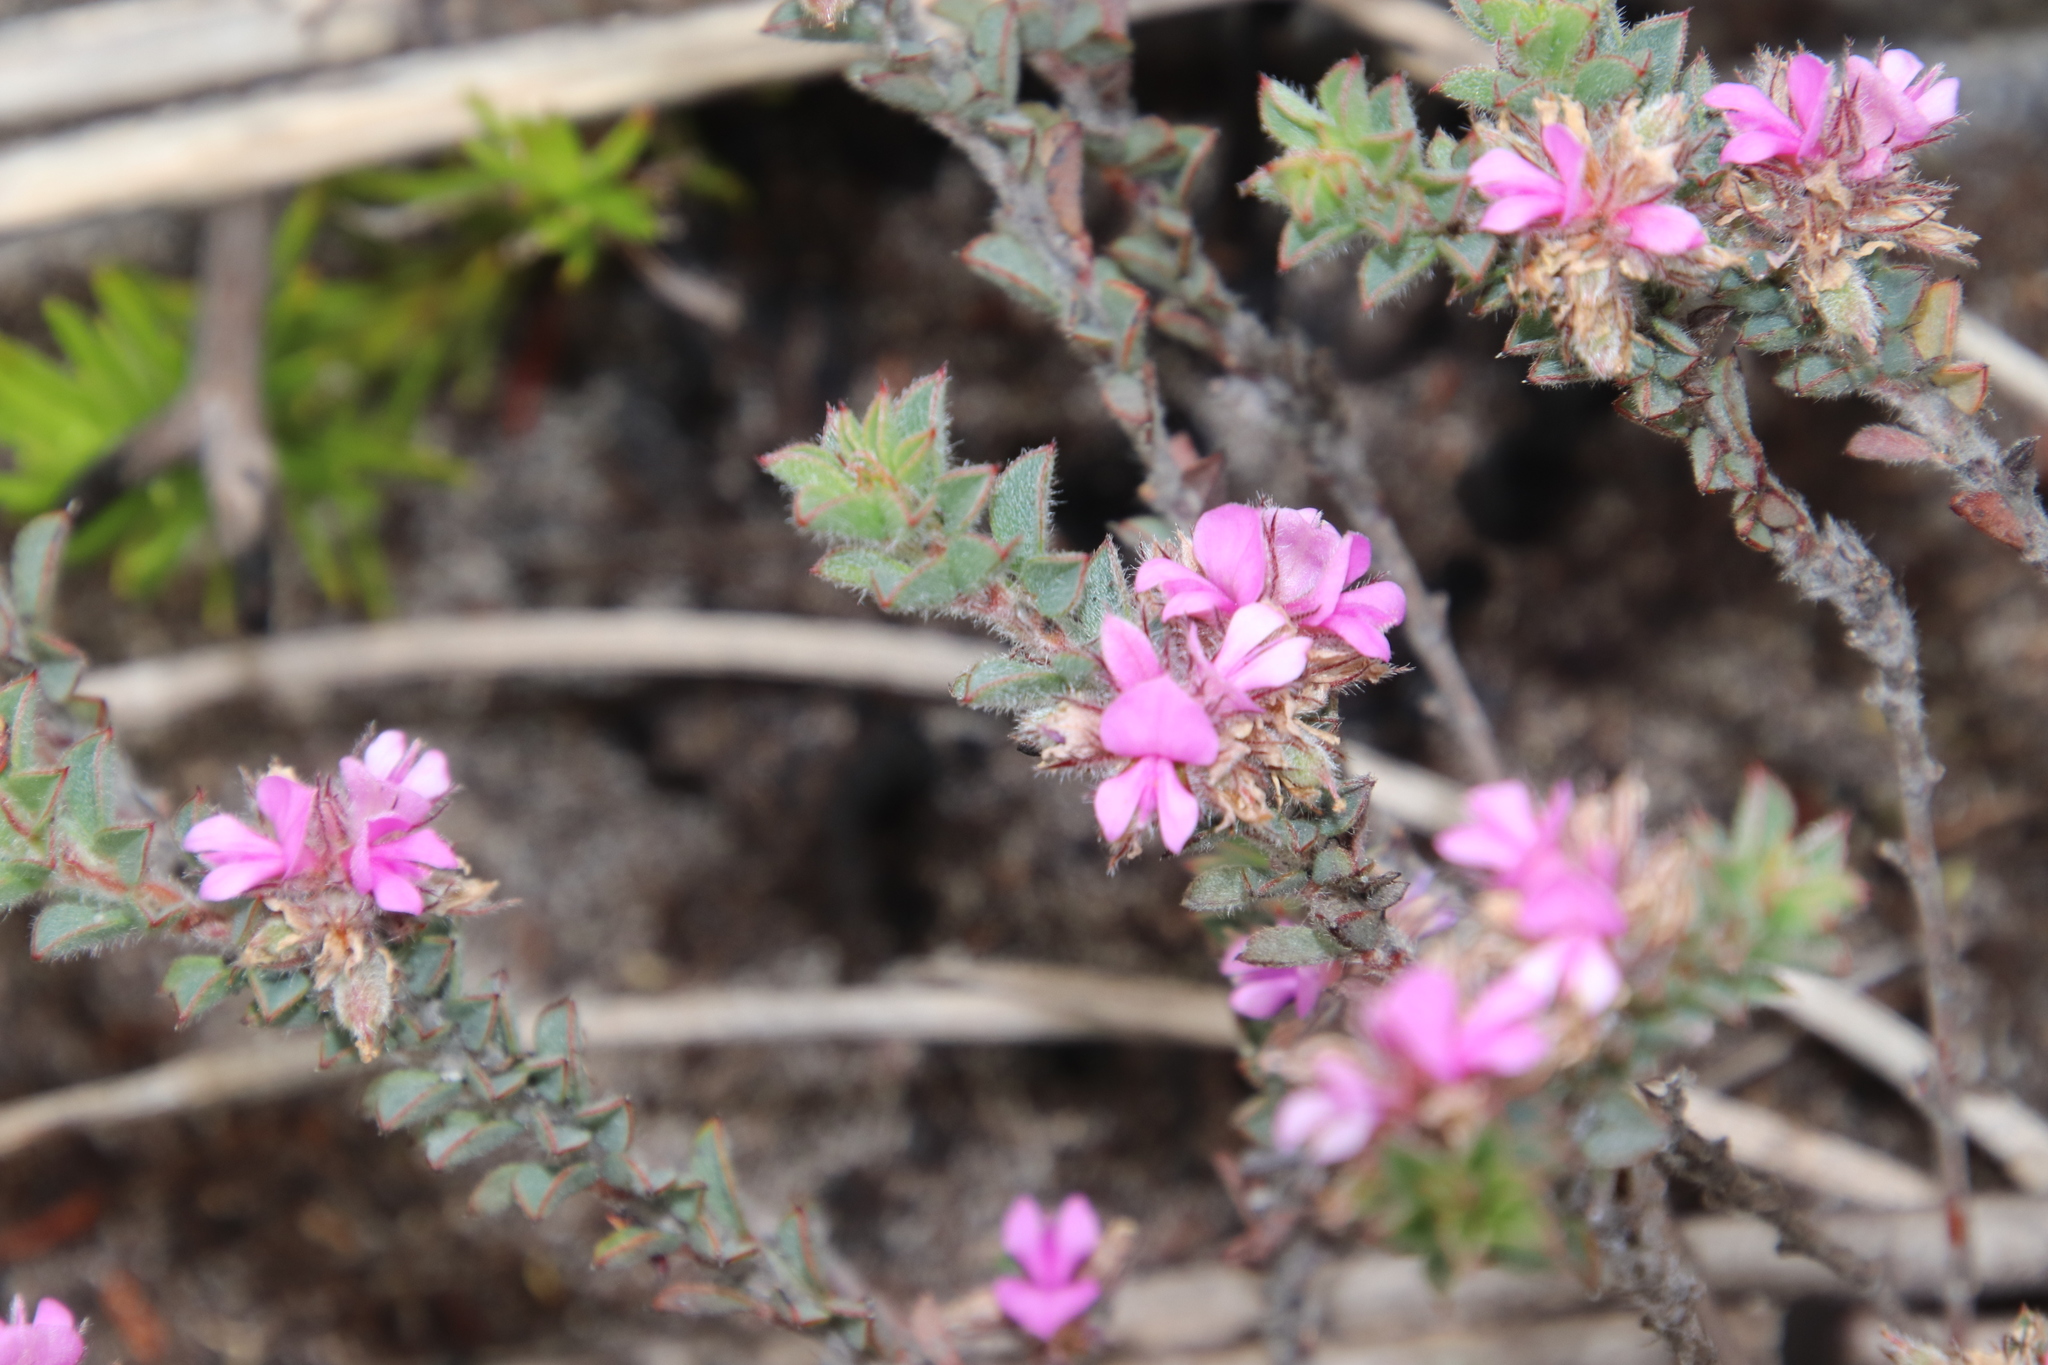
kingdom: Plantae
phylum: Tracheophyta
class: Magnoliopsida
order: Fabales
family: Fabaceae
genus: Indigofera
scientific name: Indigofera glomerata
